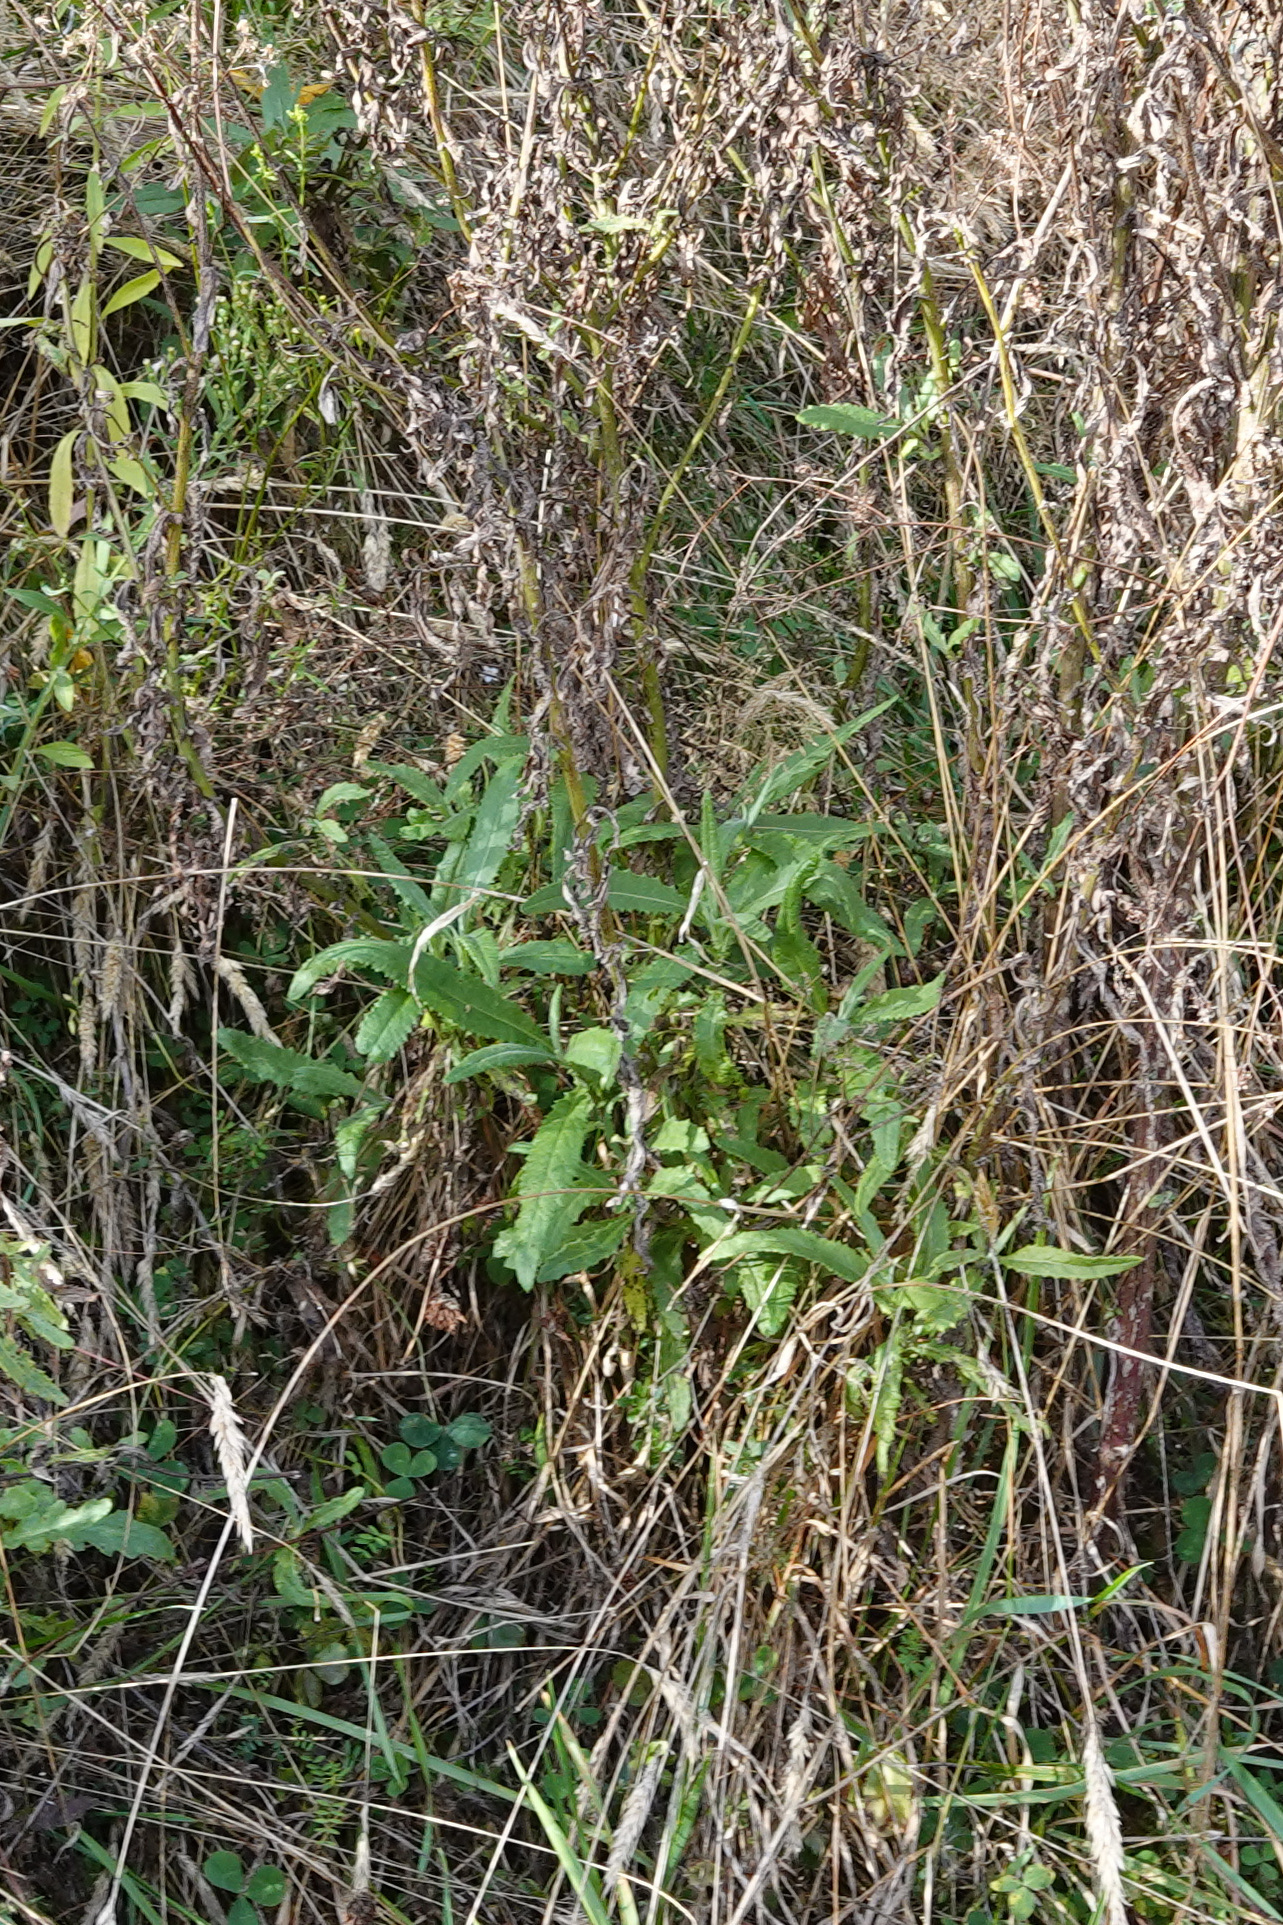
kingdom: Plantae
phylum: Tracheophyta
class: Magnoliopsida
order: Asterales
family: Asteraceae
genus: Senecio
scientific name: Senecio minimus
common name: Toothed fireweed
